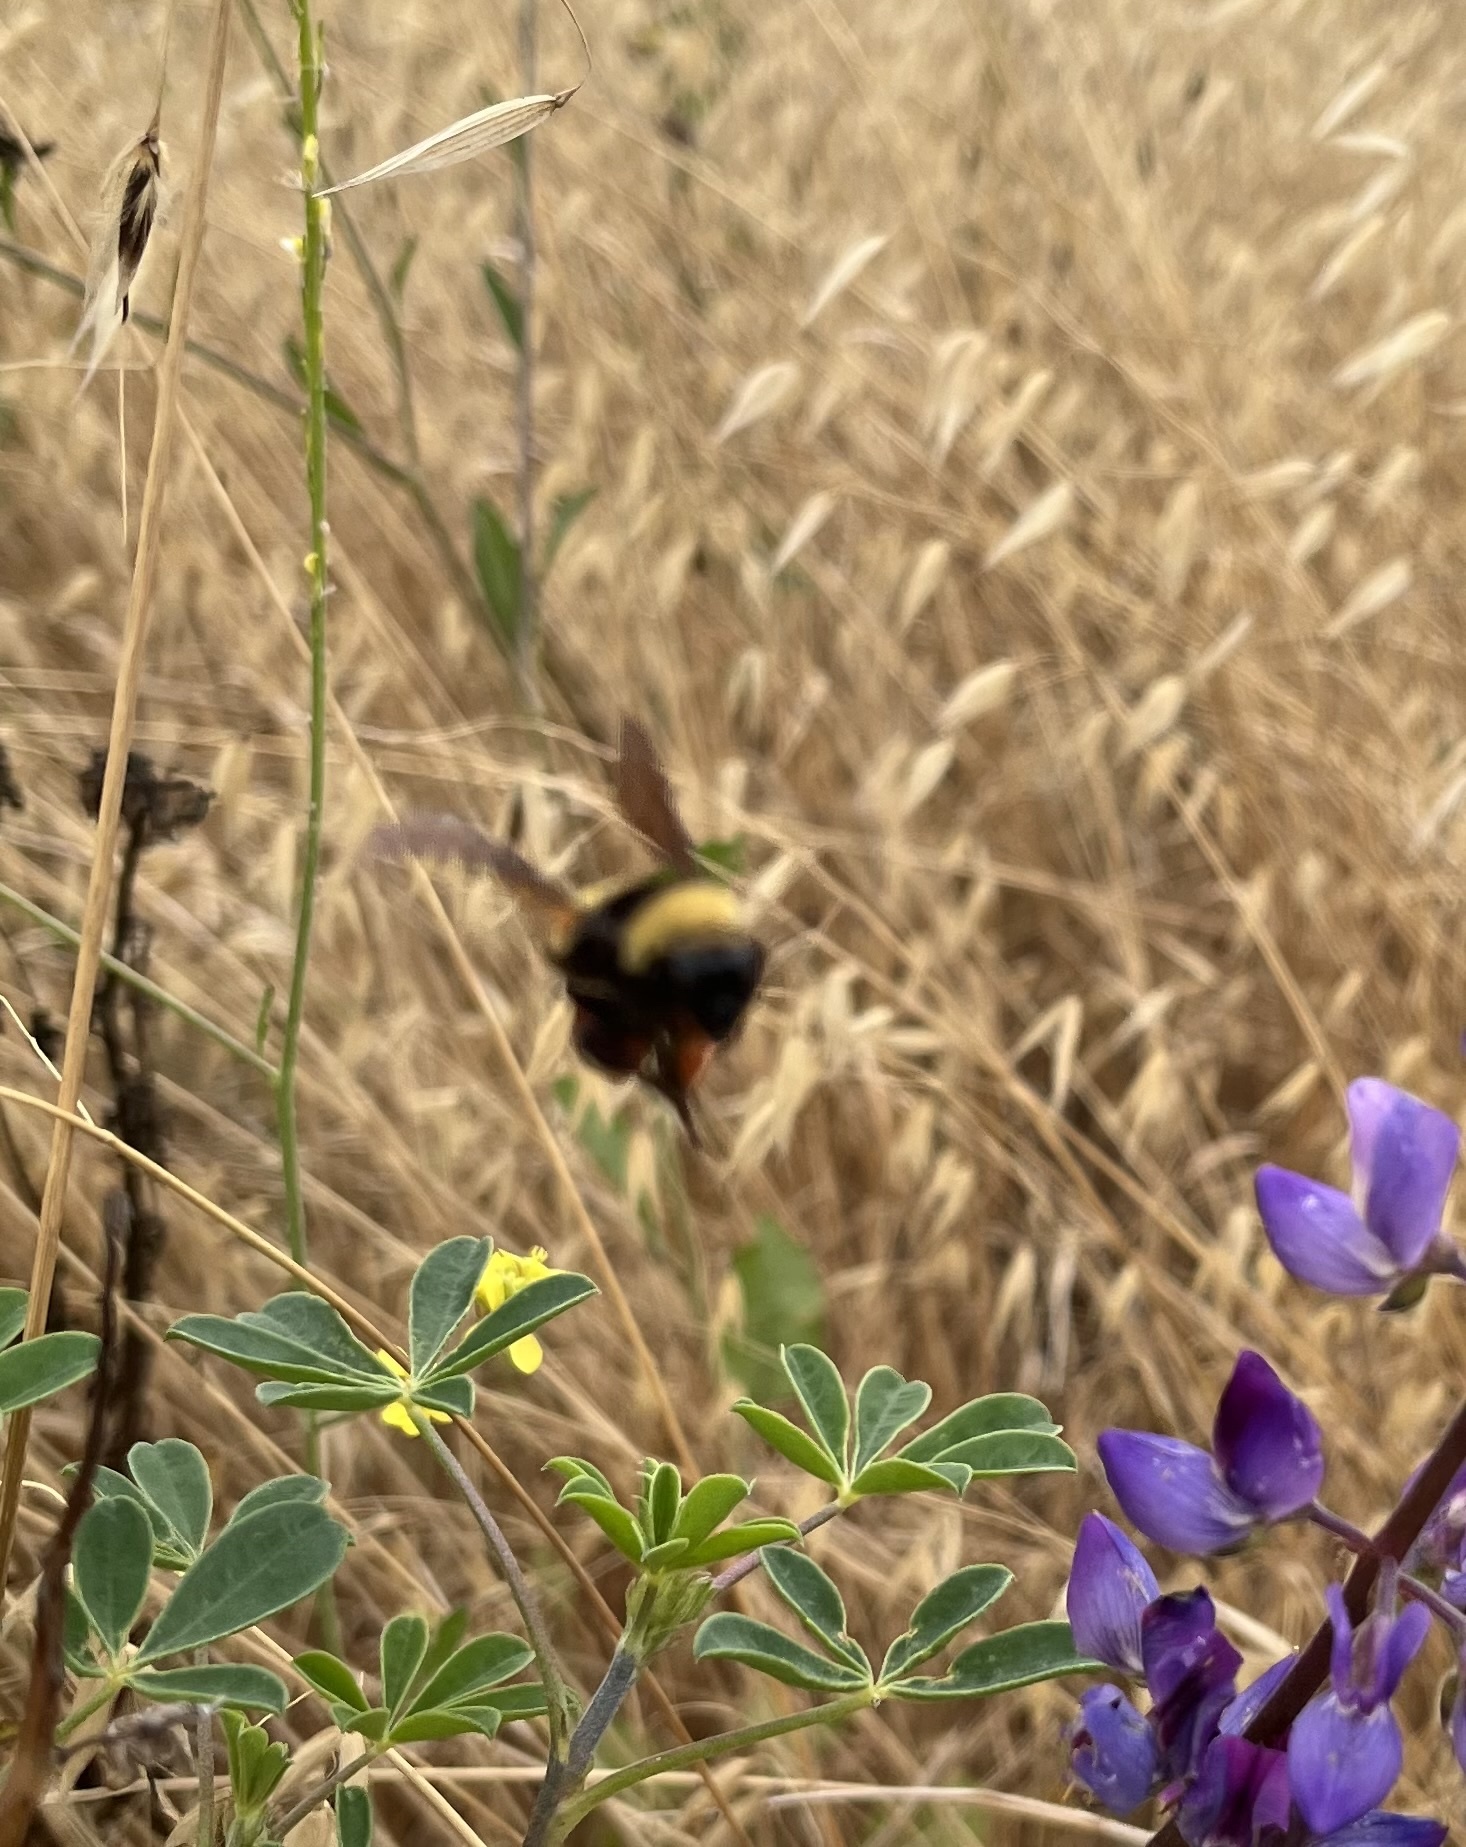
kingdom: Animalia
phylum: Arthropoda
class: Insecta
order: Hymenoptera
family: Apidae
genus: Bombus
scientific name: Bombus crotchii
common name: Crotch bumble bee
